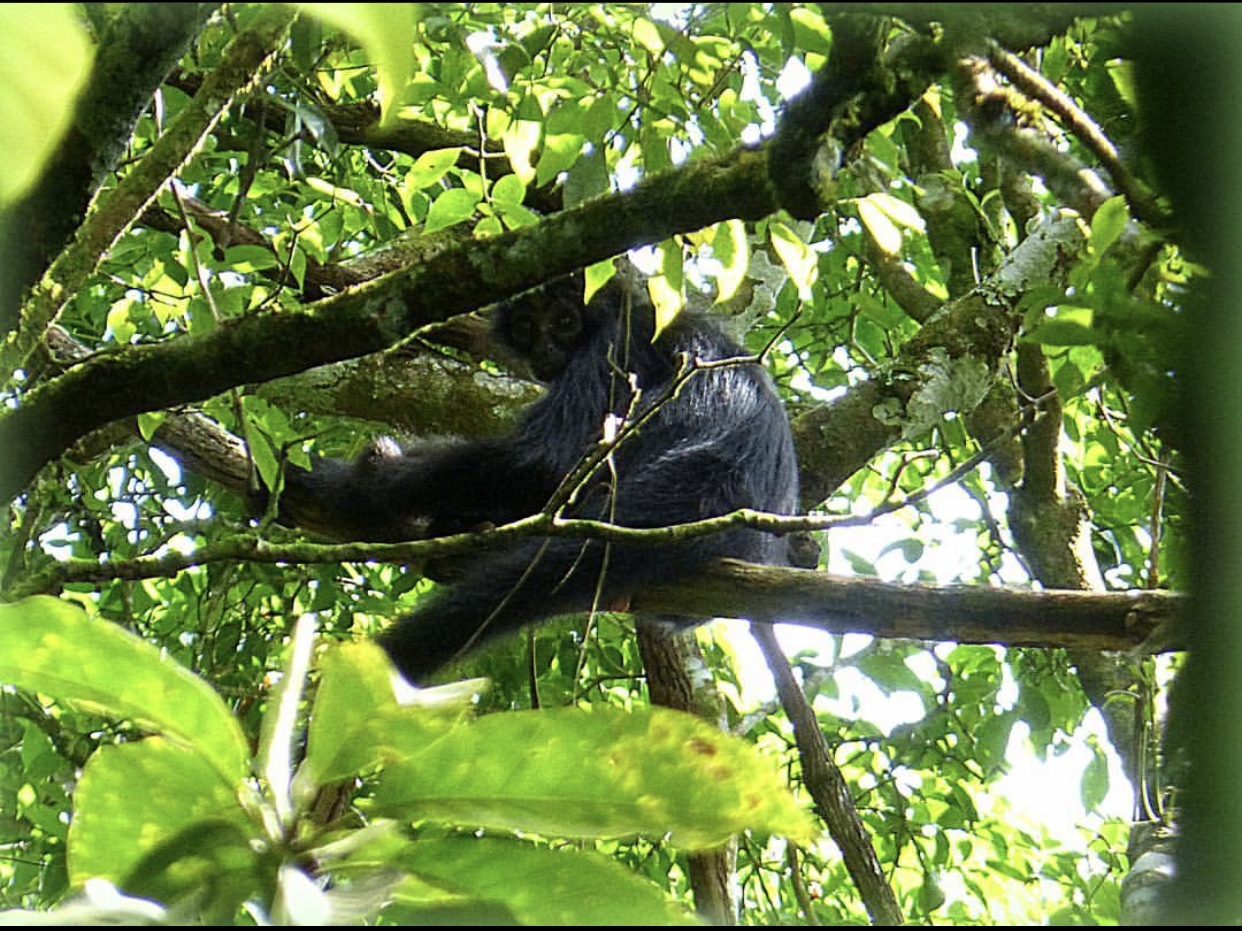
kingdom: Animalia
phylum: Chordata
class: Mammalia
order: Primates
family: Atelidae
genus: Ateles
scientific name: Ateles fusciceps
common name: Black-headed spider monkey
